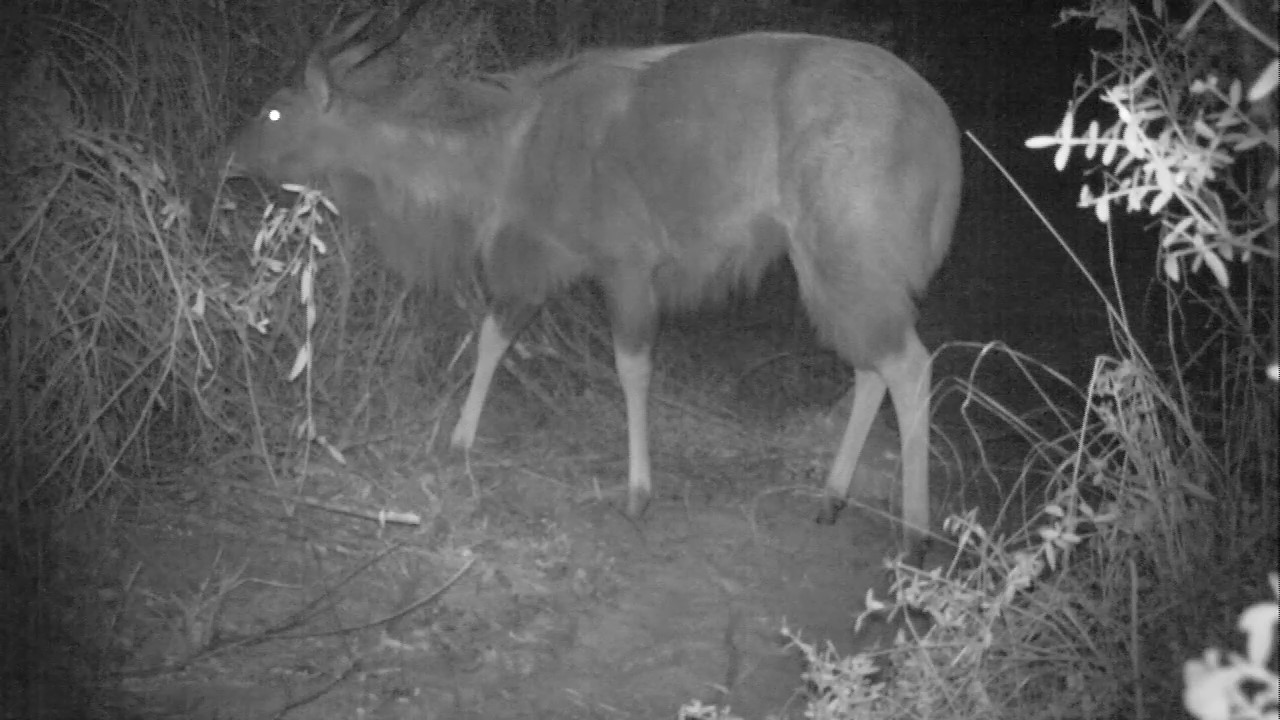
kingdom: Animalia
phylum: Chordata
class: Mammalia
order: Artiodactyla
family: Bovidae
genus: Tragelaphus
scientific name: Tragelaphus angasii
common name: Nyala
